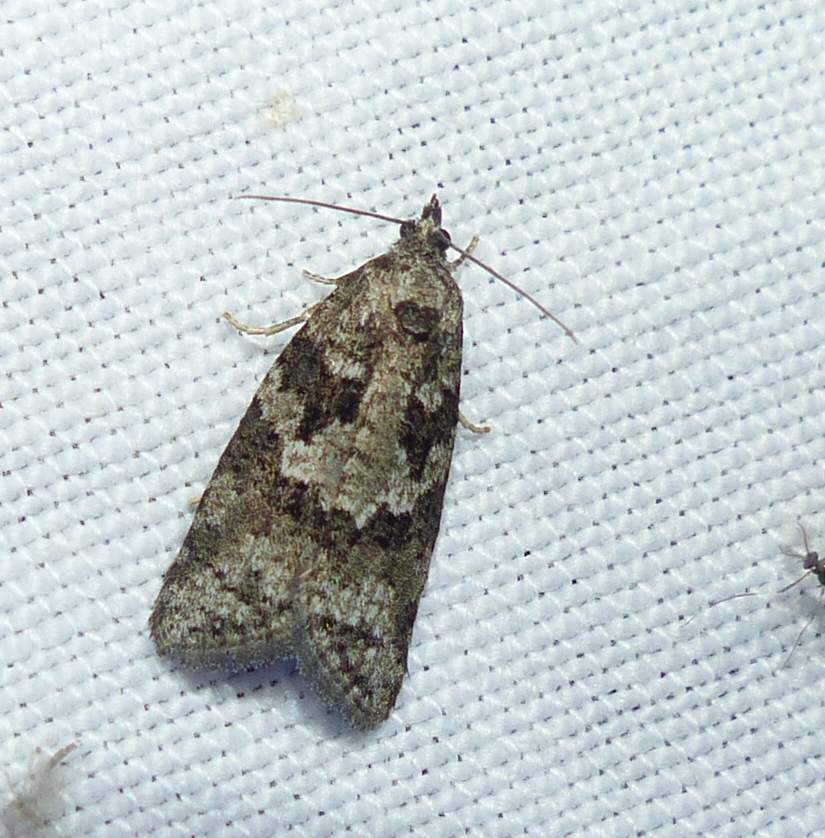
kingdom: Animalia
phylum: Arthropoda
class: Insecta
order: Lepidoptera
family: Tortricidae
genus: Cnephasia
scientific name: Cnephasia stephensiana
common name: Grey tortrix
